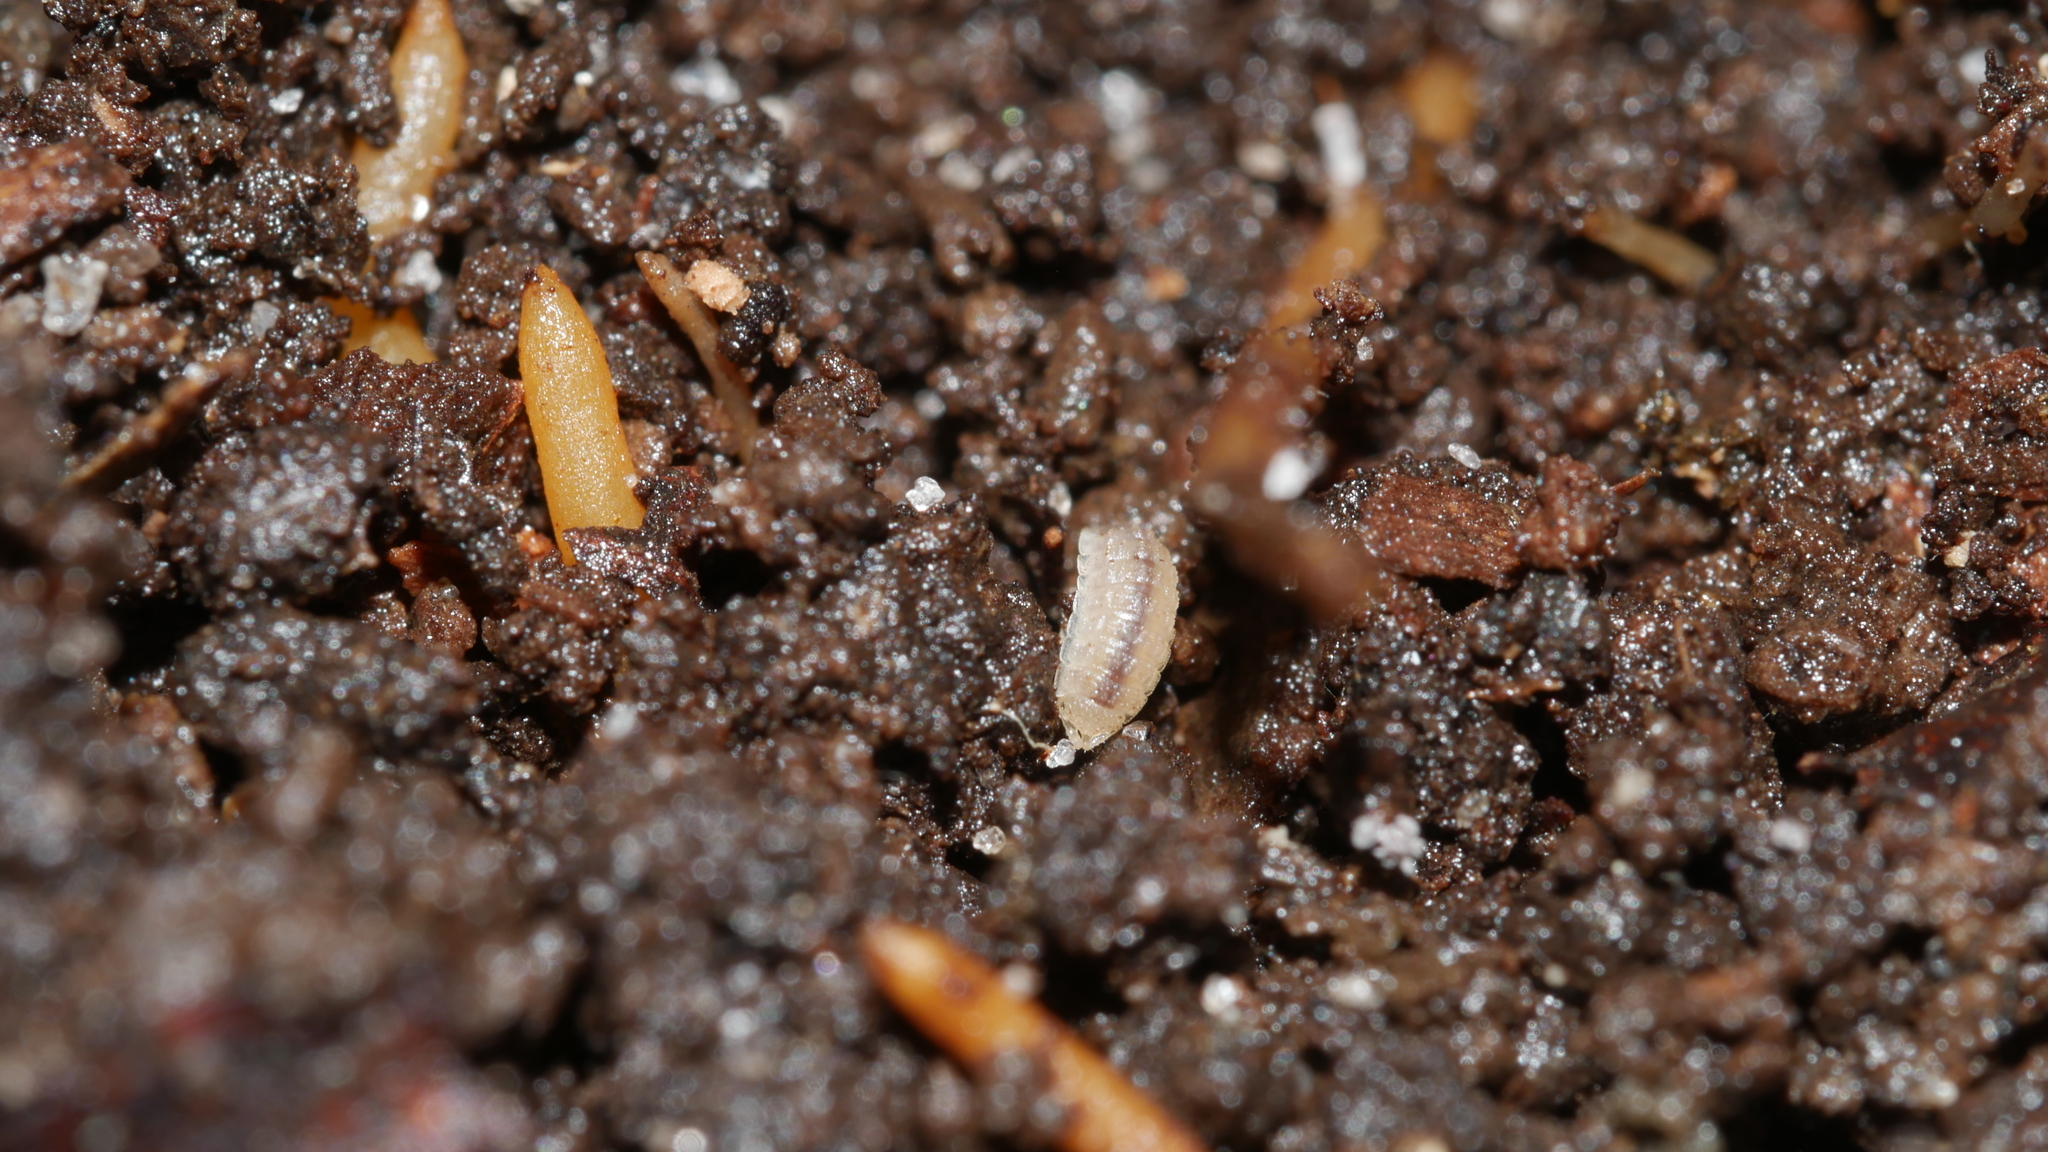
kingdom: Animalia
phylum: Arthropoda
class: Malacostraca
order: Isopoda
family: Trichoniscidae
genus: Haplophthalmus
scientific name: Haplophthalmus danicus
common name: Pillbug
